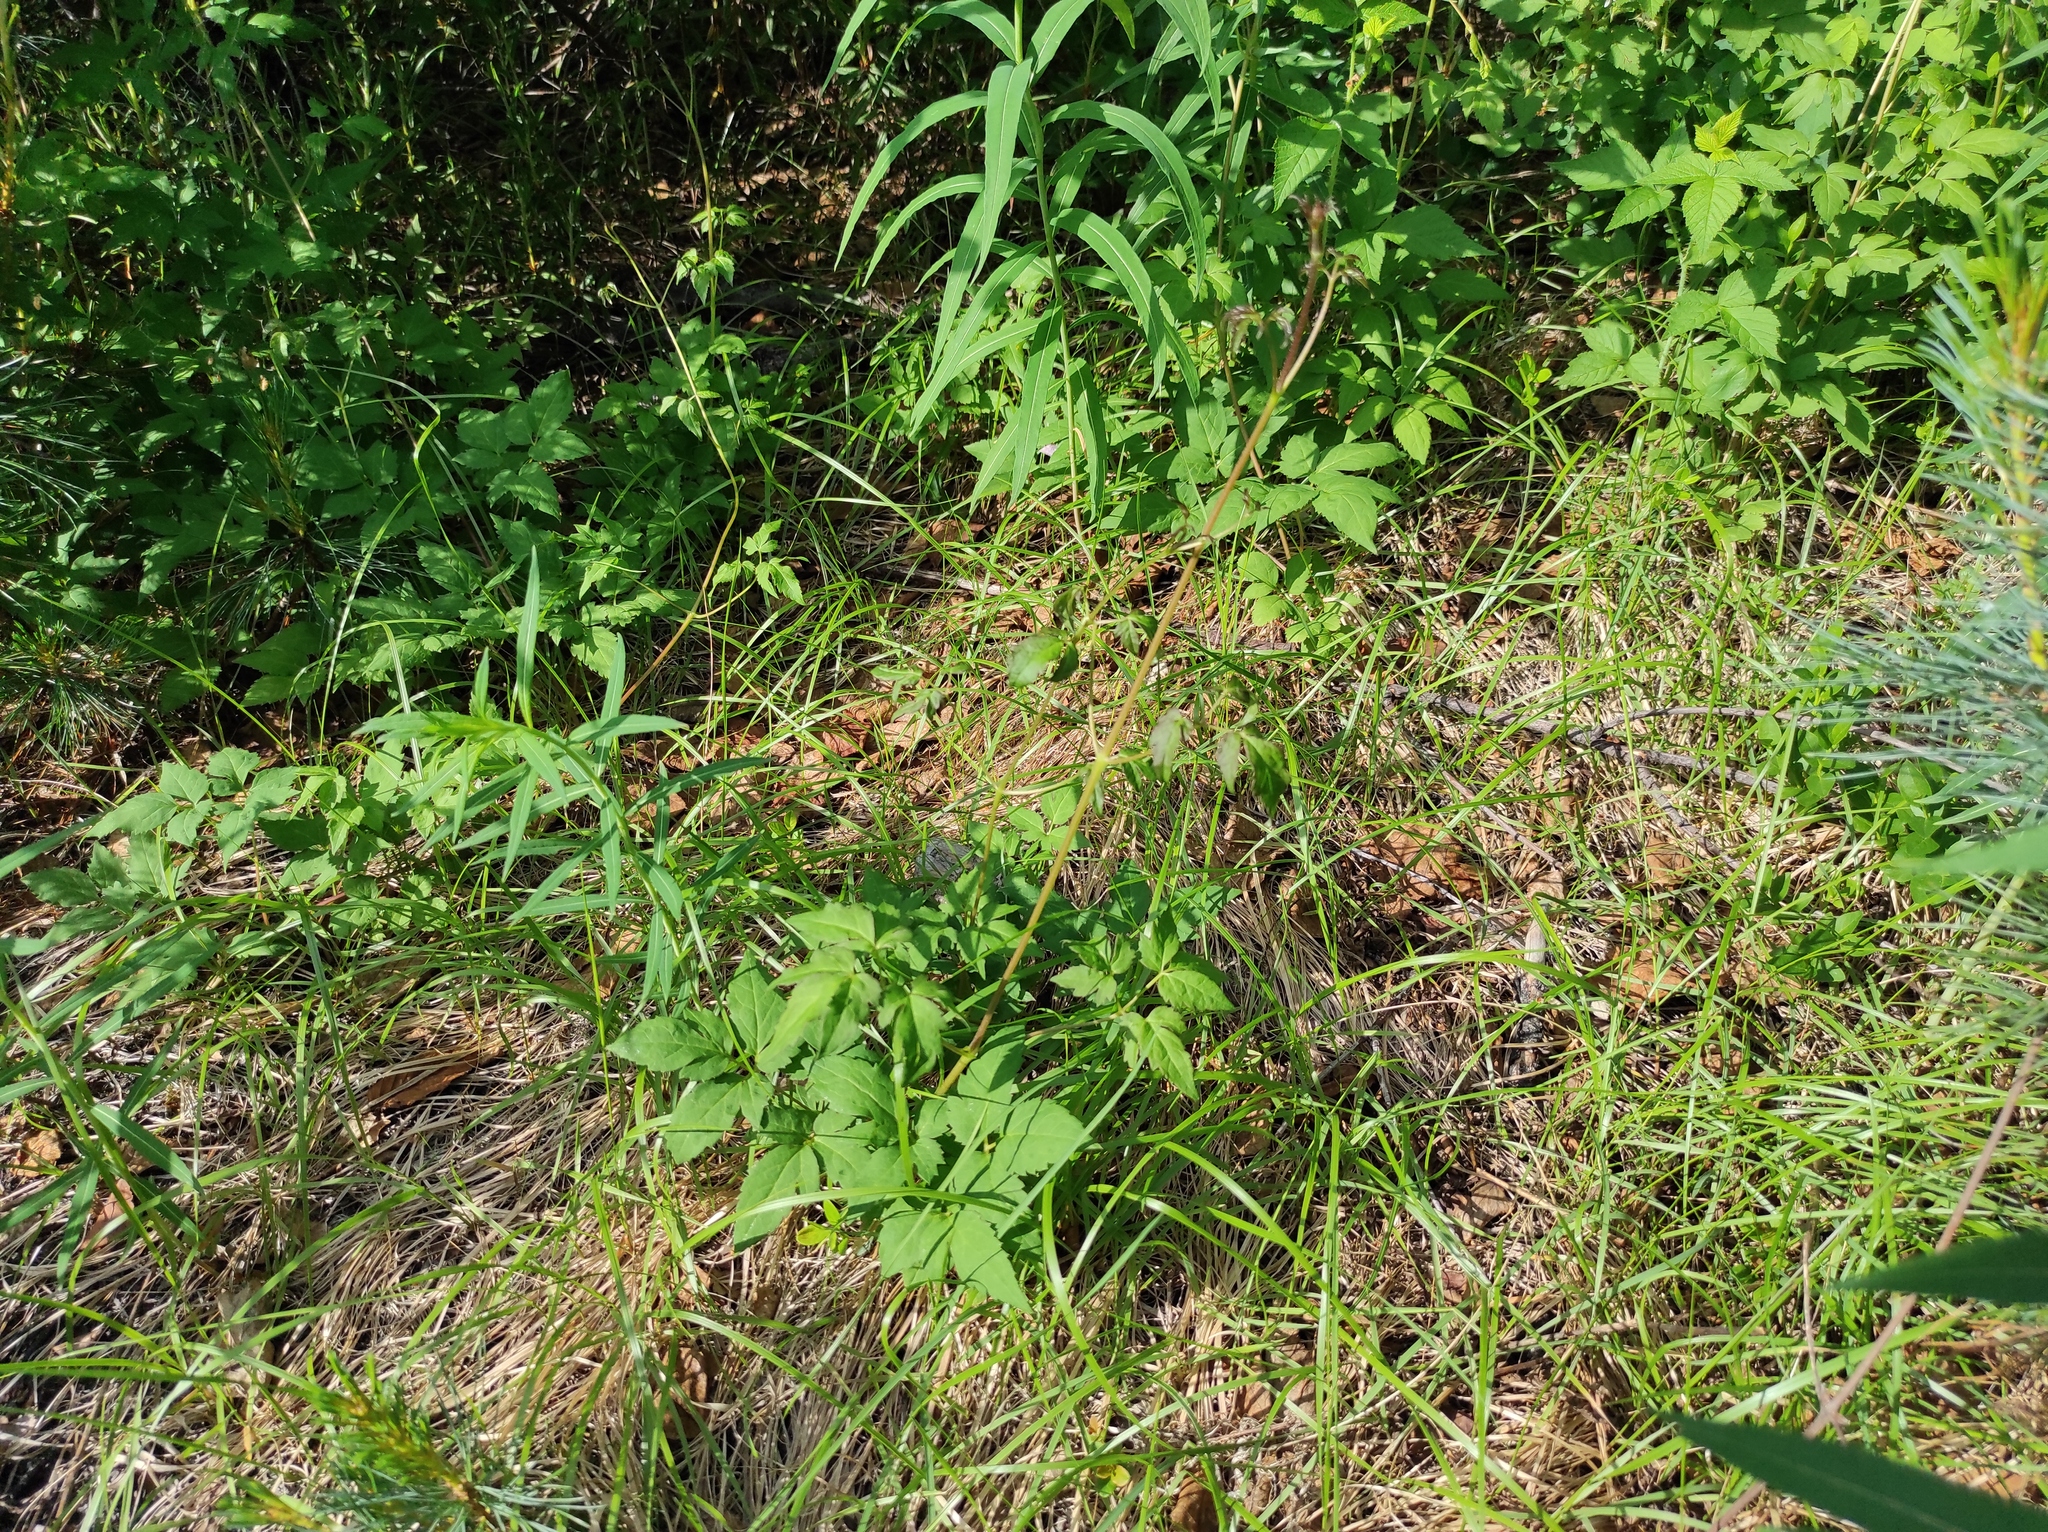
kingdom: Plantae
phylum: Tracheophyta
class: Magnoliopsida
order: Ranunculales
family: Ranunculaceae
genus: Clematis
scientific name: Clematis sibirica
